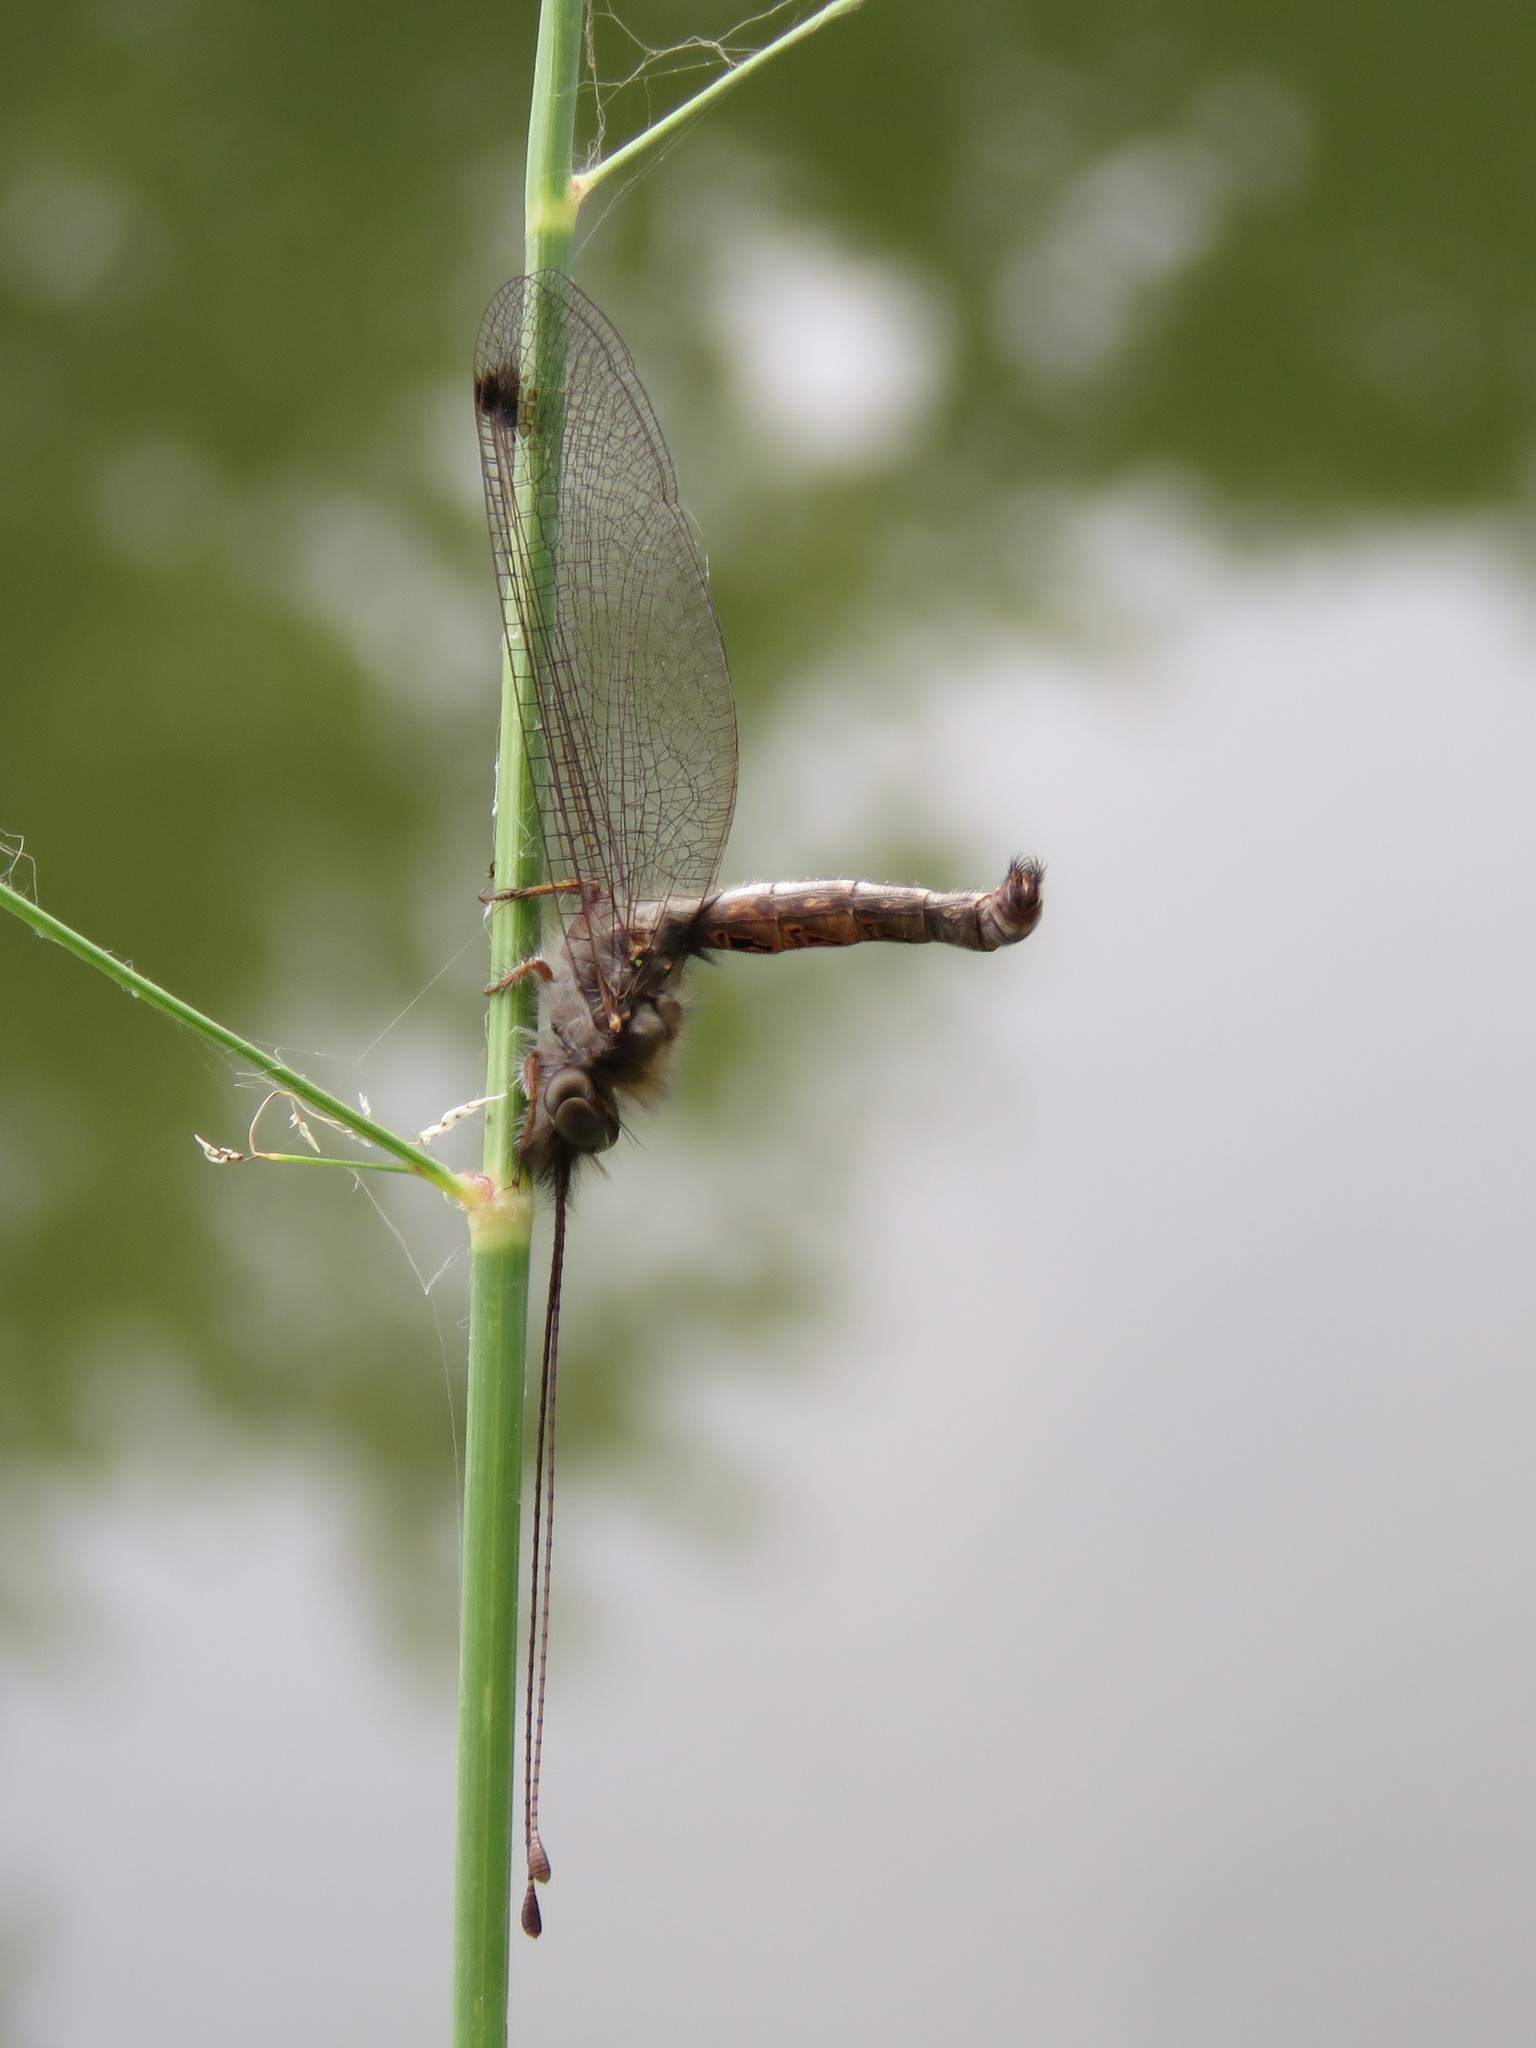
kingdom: Animalia
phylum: Arthropoda
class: Insecta
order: Neuroptera
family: Ascalaphidae
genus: Ululodes
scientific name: Ululodes macleayanus
